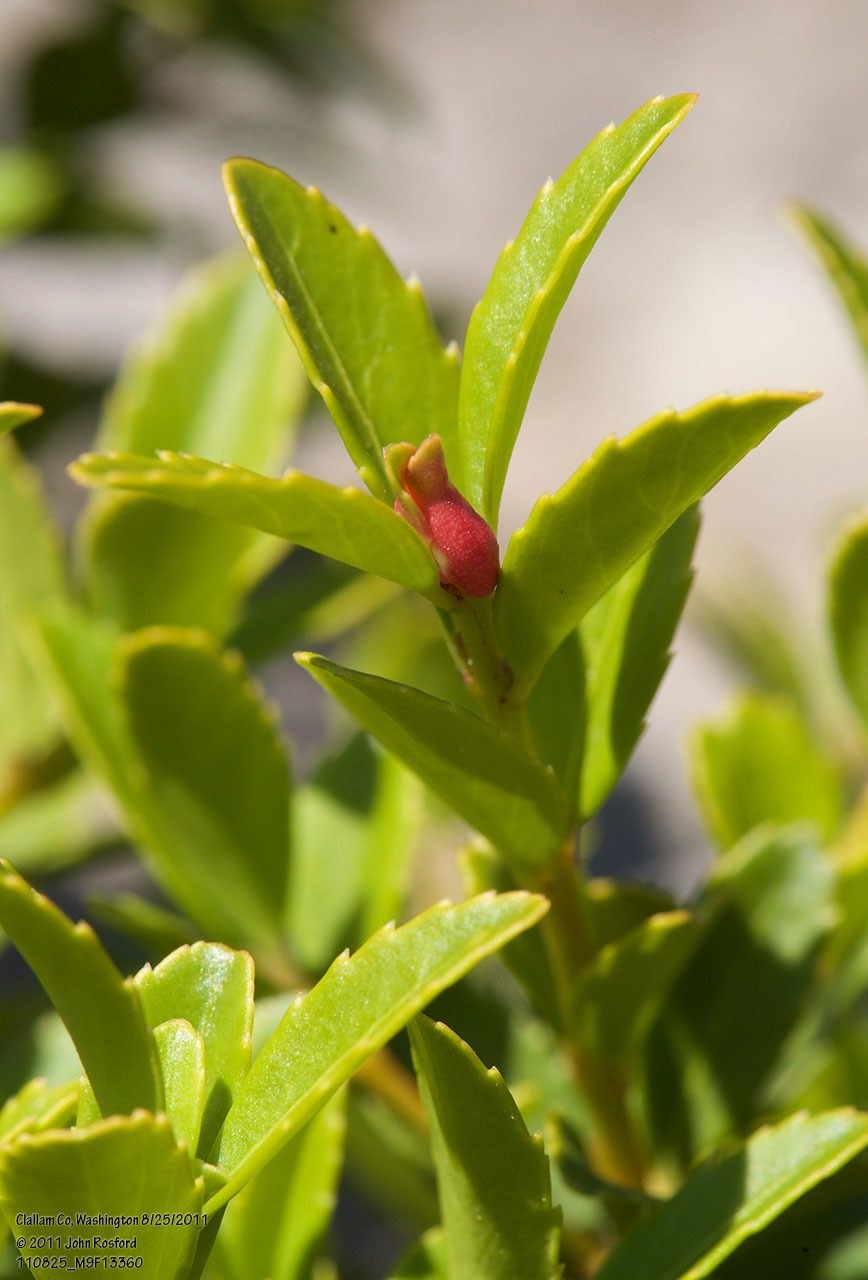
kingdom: Plantae
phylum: Tracheophyta
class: Magnoliopsida
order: Celastrales
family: Celastraceae
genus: Paxistima
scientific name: Paxistima myrsinites
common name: Mountain-lover
